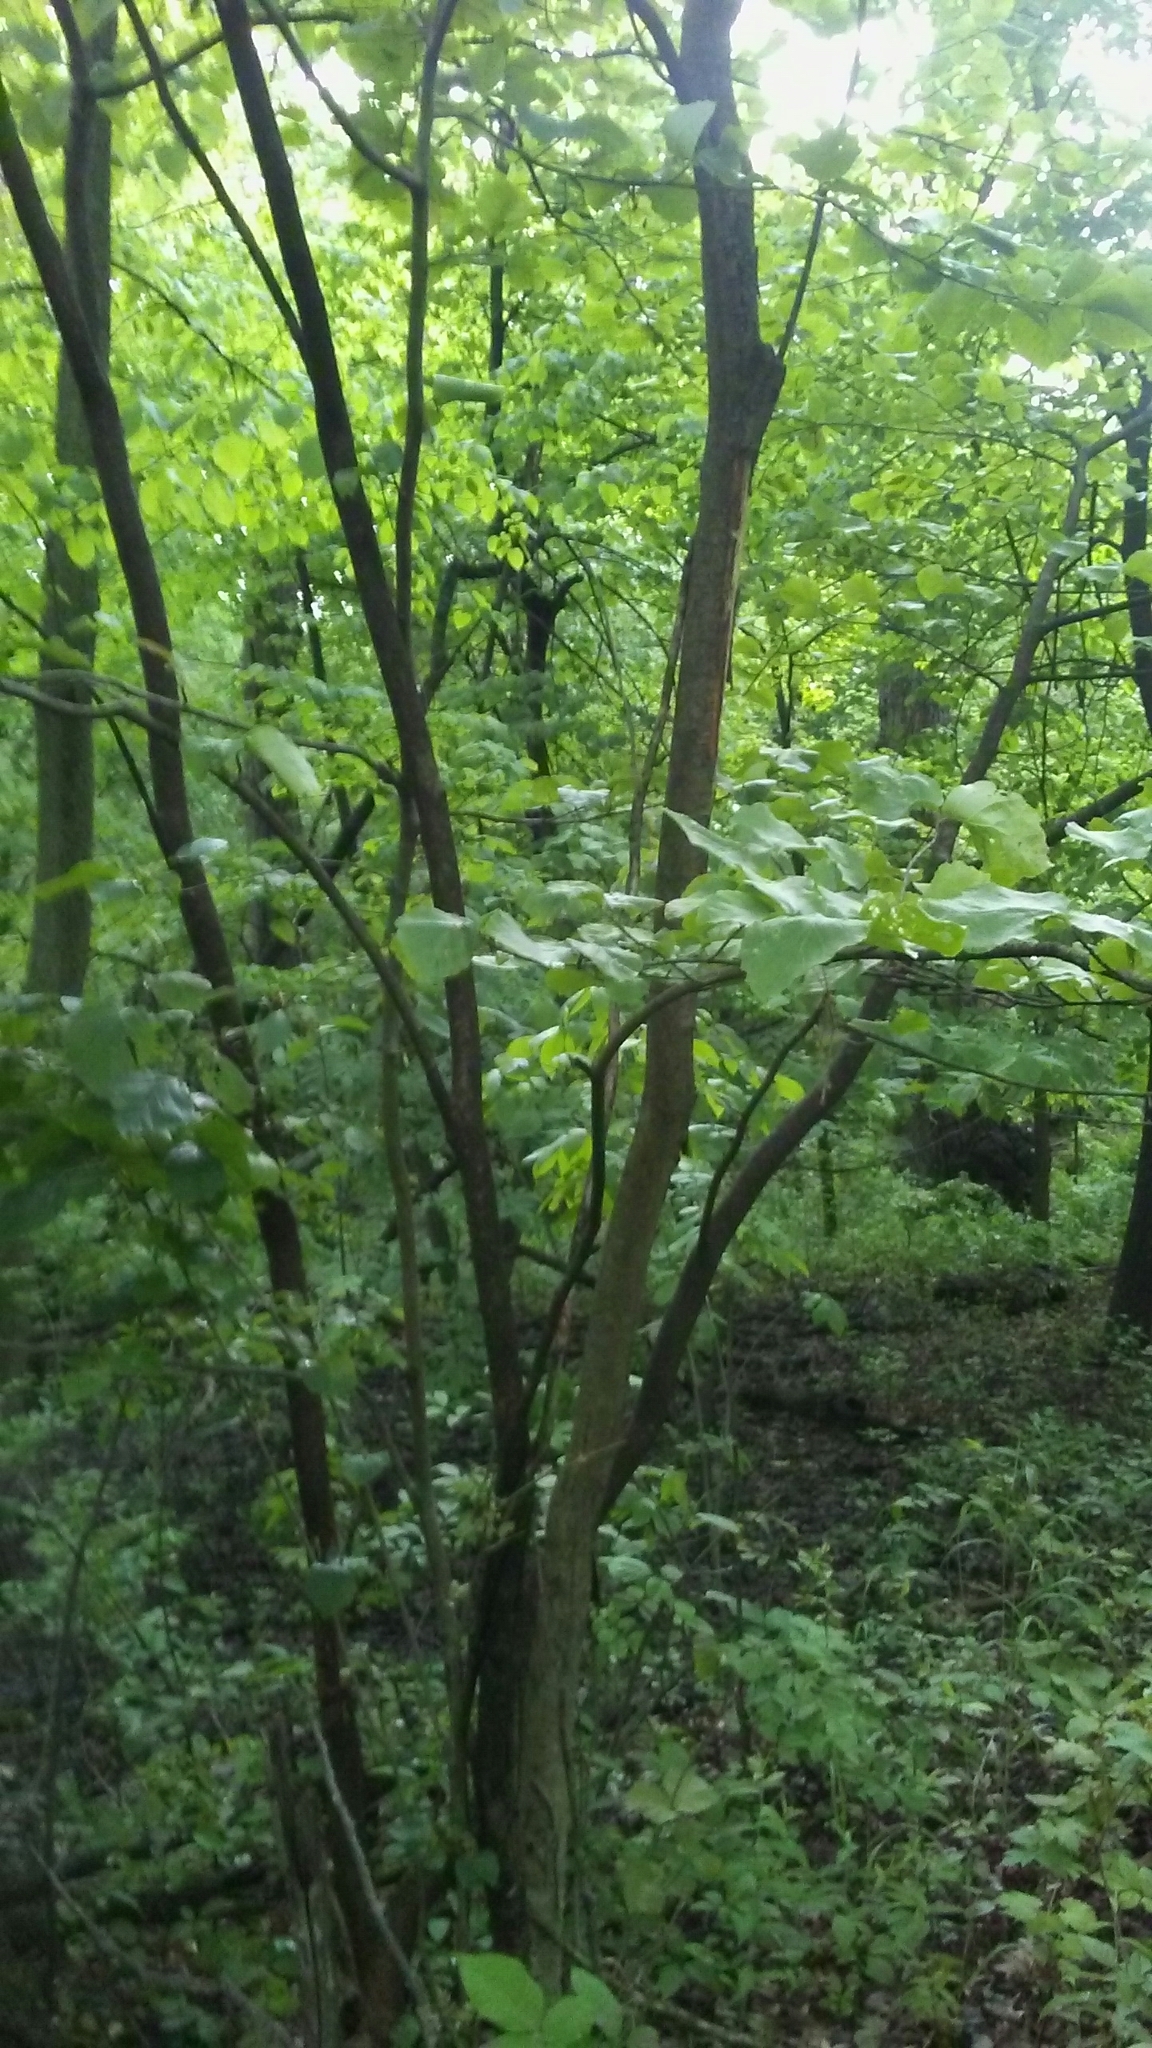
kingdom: Plantae
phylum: Tracheophyta
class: Magnoliopsida
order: Saxifragales
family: Hamamelidaceae
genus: Hamamelis
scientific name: Hamamelis virginiana
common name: Witch-hazel
